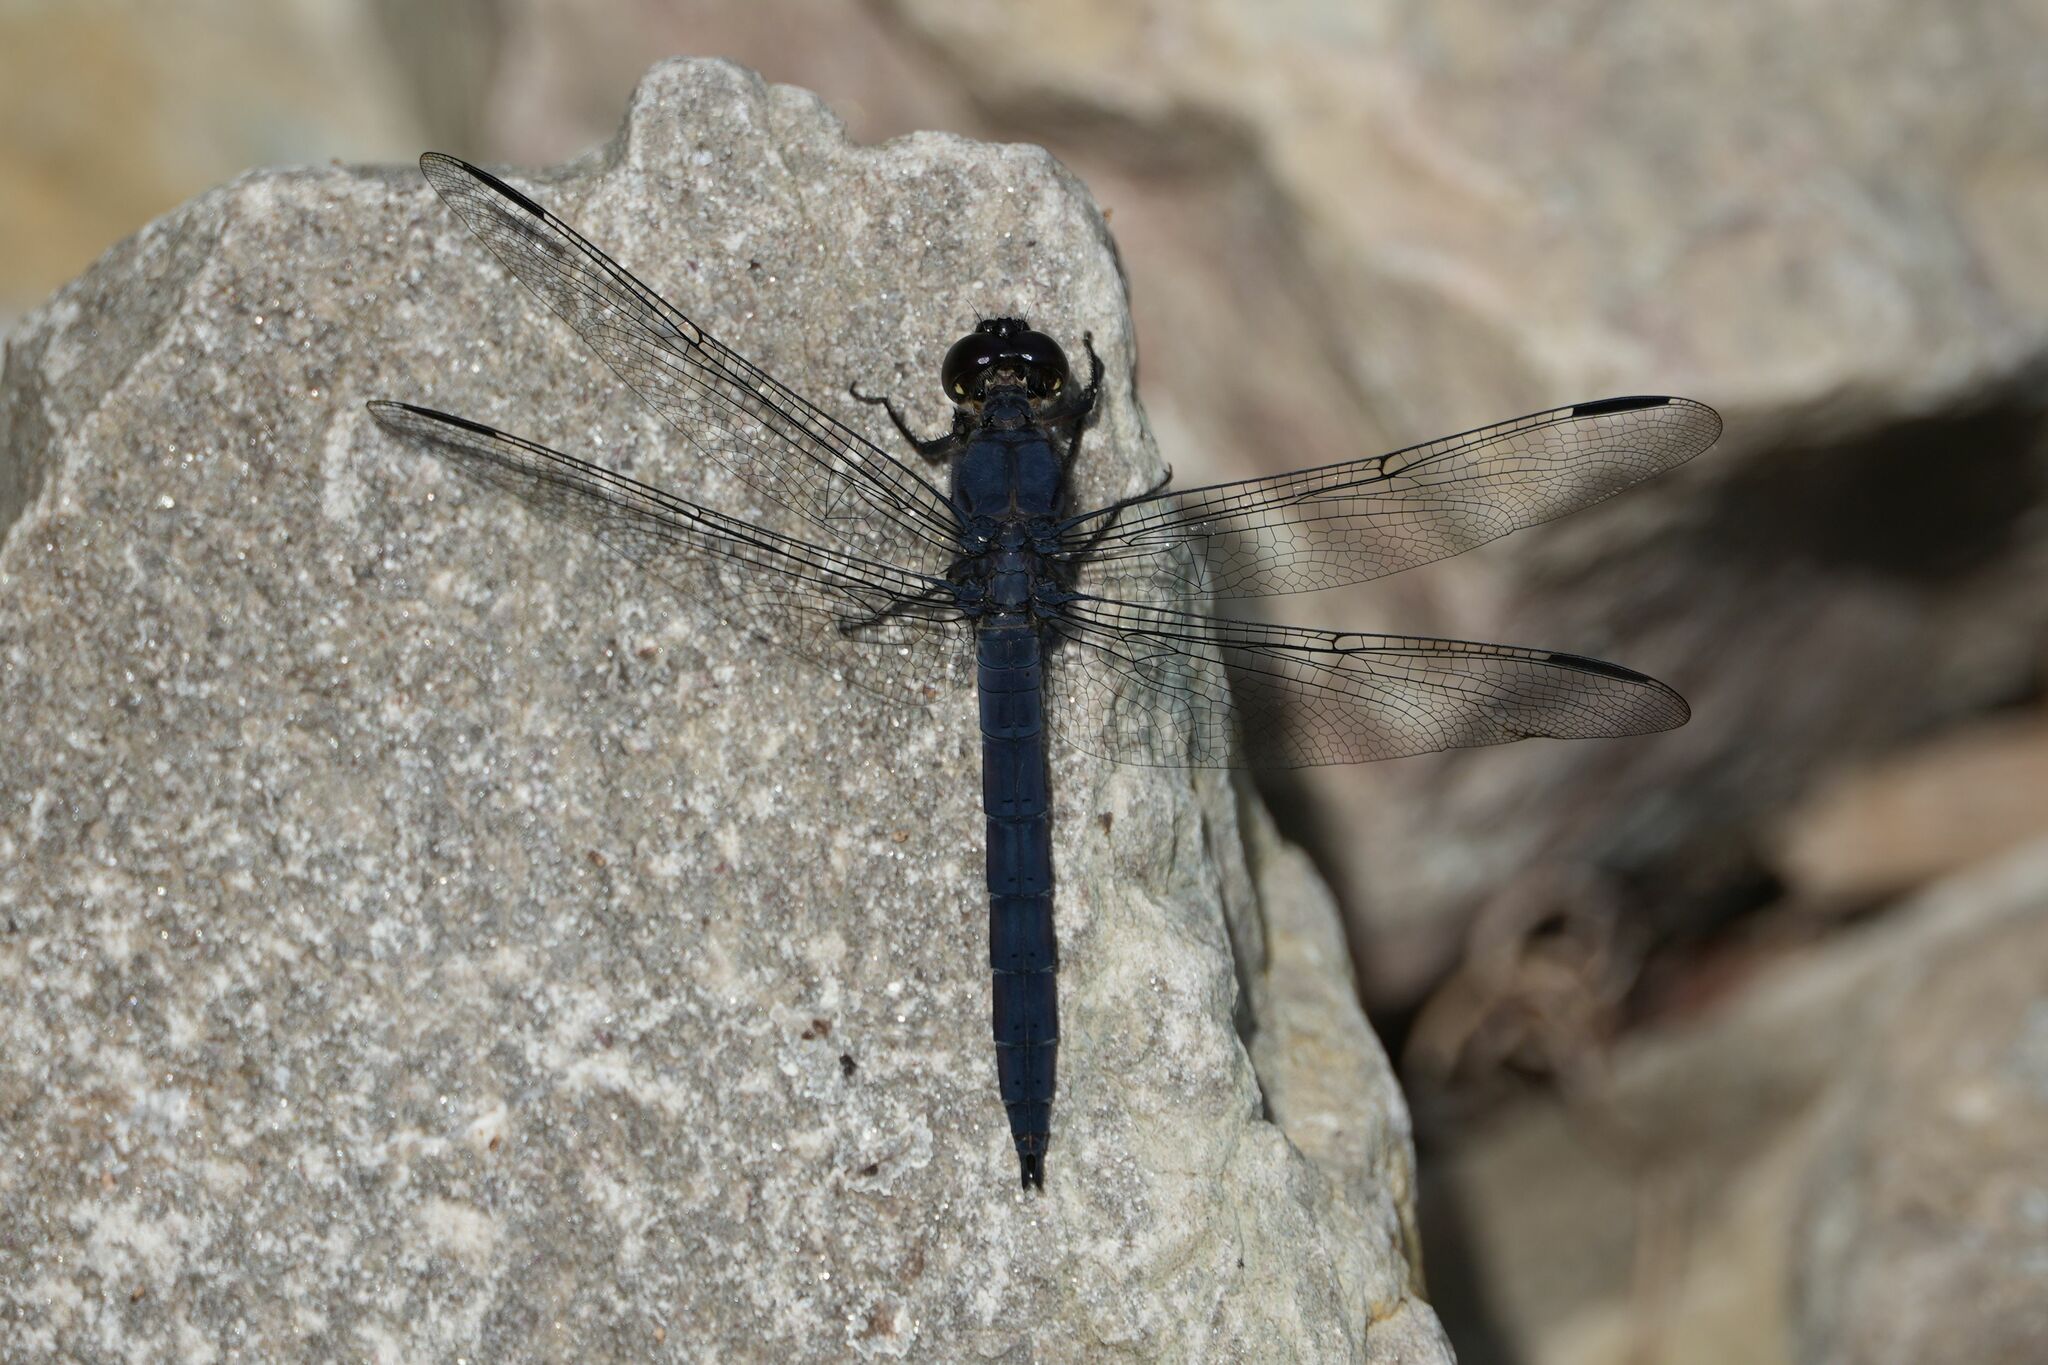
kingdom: Animalia
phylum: Arthropoda
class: Insecta
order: Odonata
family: Libellulidae
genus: Libellula
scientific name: Libellula incesta
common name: Slaty skimmer
